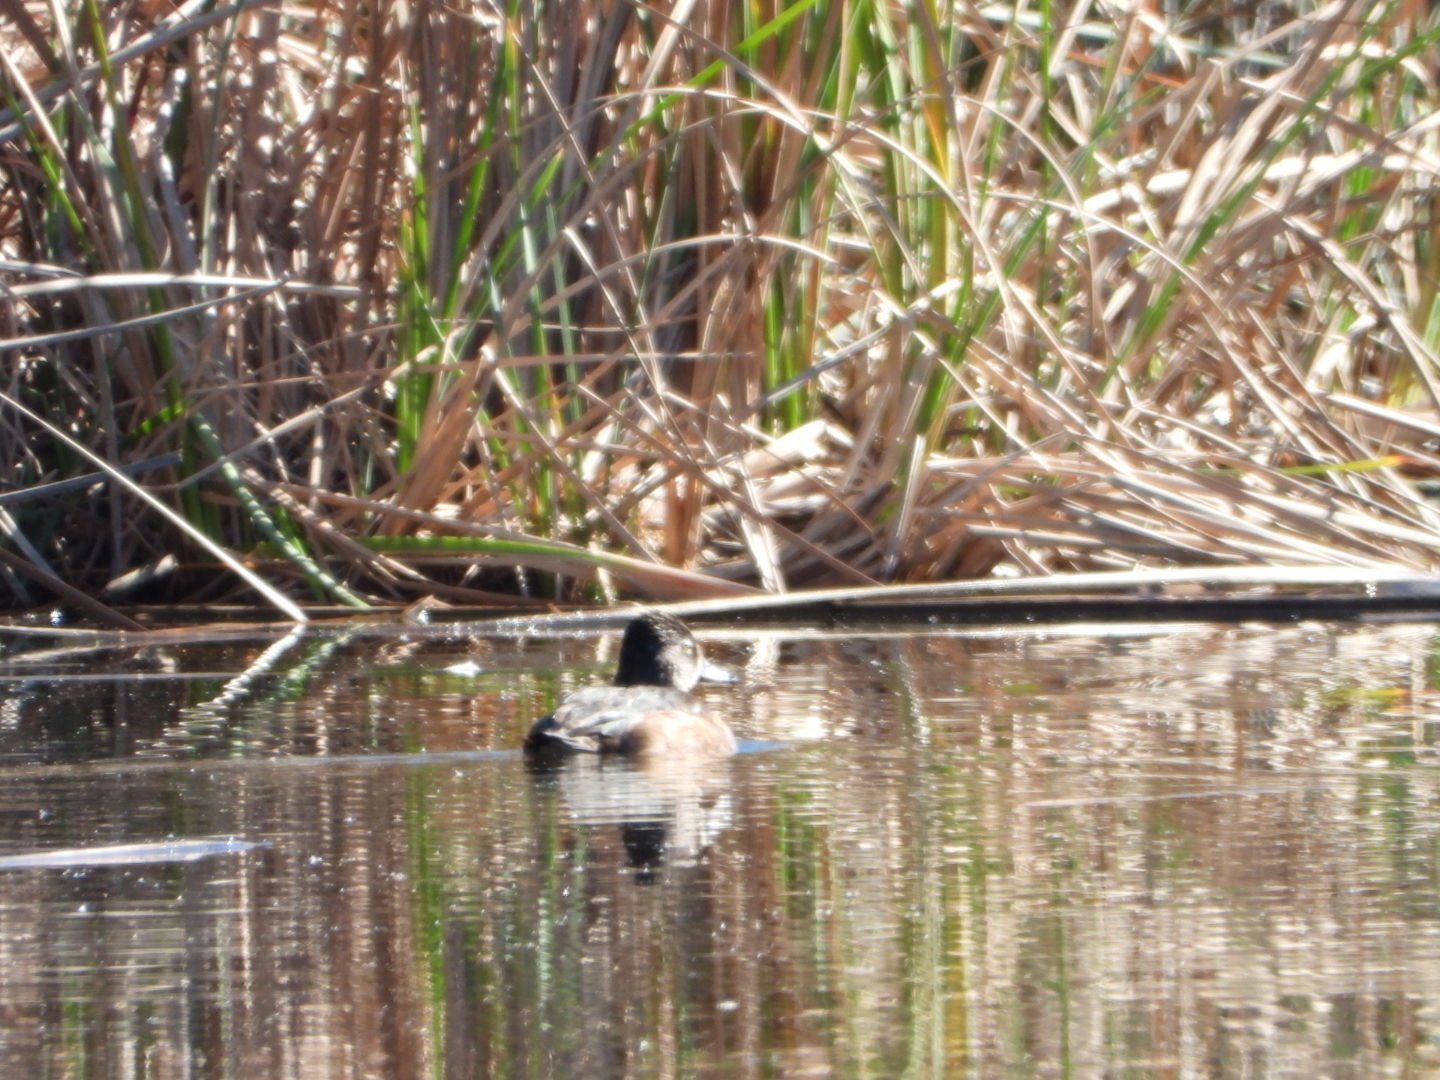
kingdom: Animalia
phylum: Chordata
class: Aves
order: Anseriformes
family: Anatidae
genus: Aythya
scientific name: Aythya collaris
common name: Ring-necked duck
